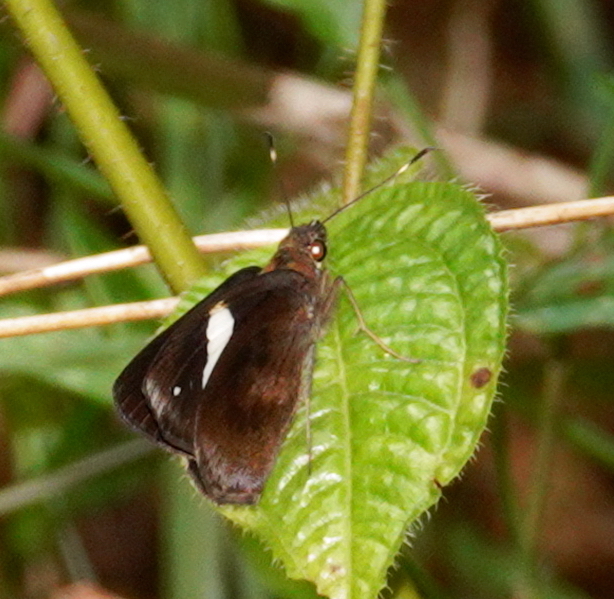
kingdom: Animalia
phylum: Arthropoda
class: Insecta
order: Lepidoptera
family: Hesperiidae
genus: Notocrypta
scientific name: Notocrypta paralysos
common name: Common banded demon
